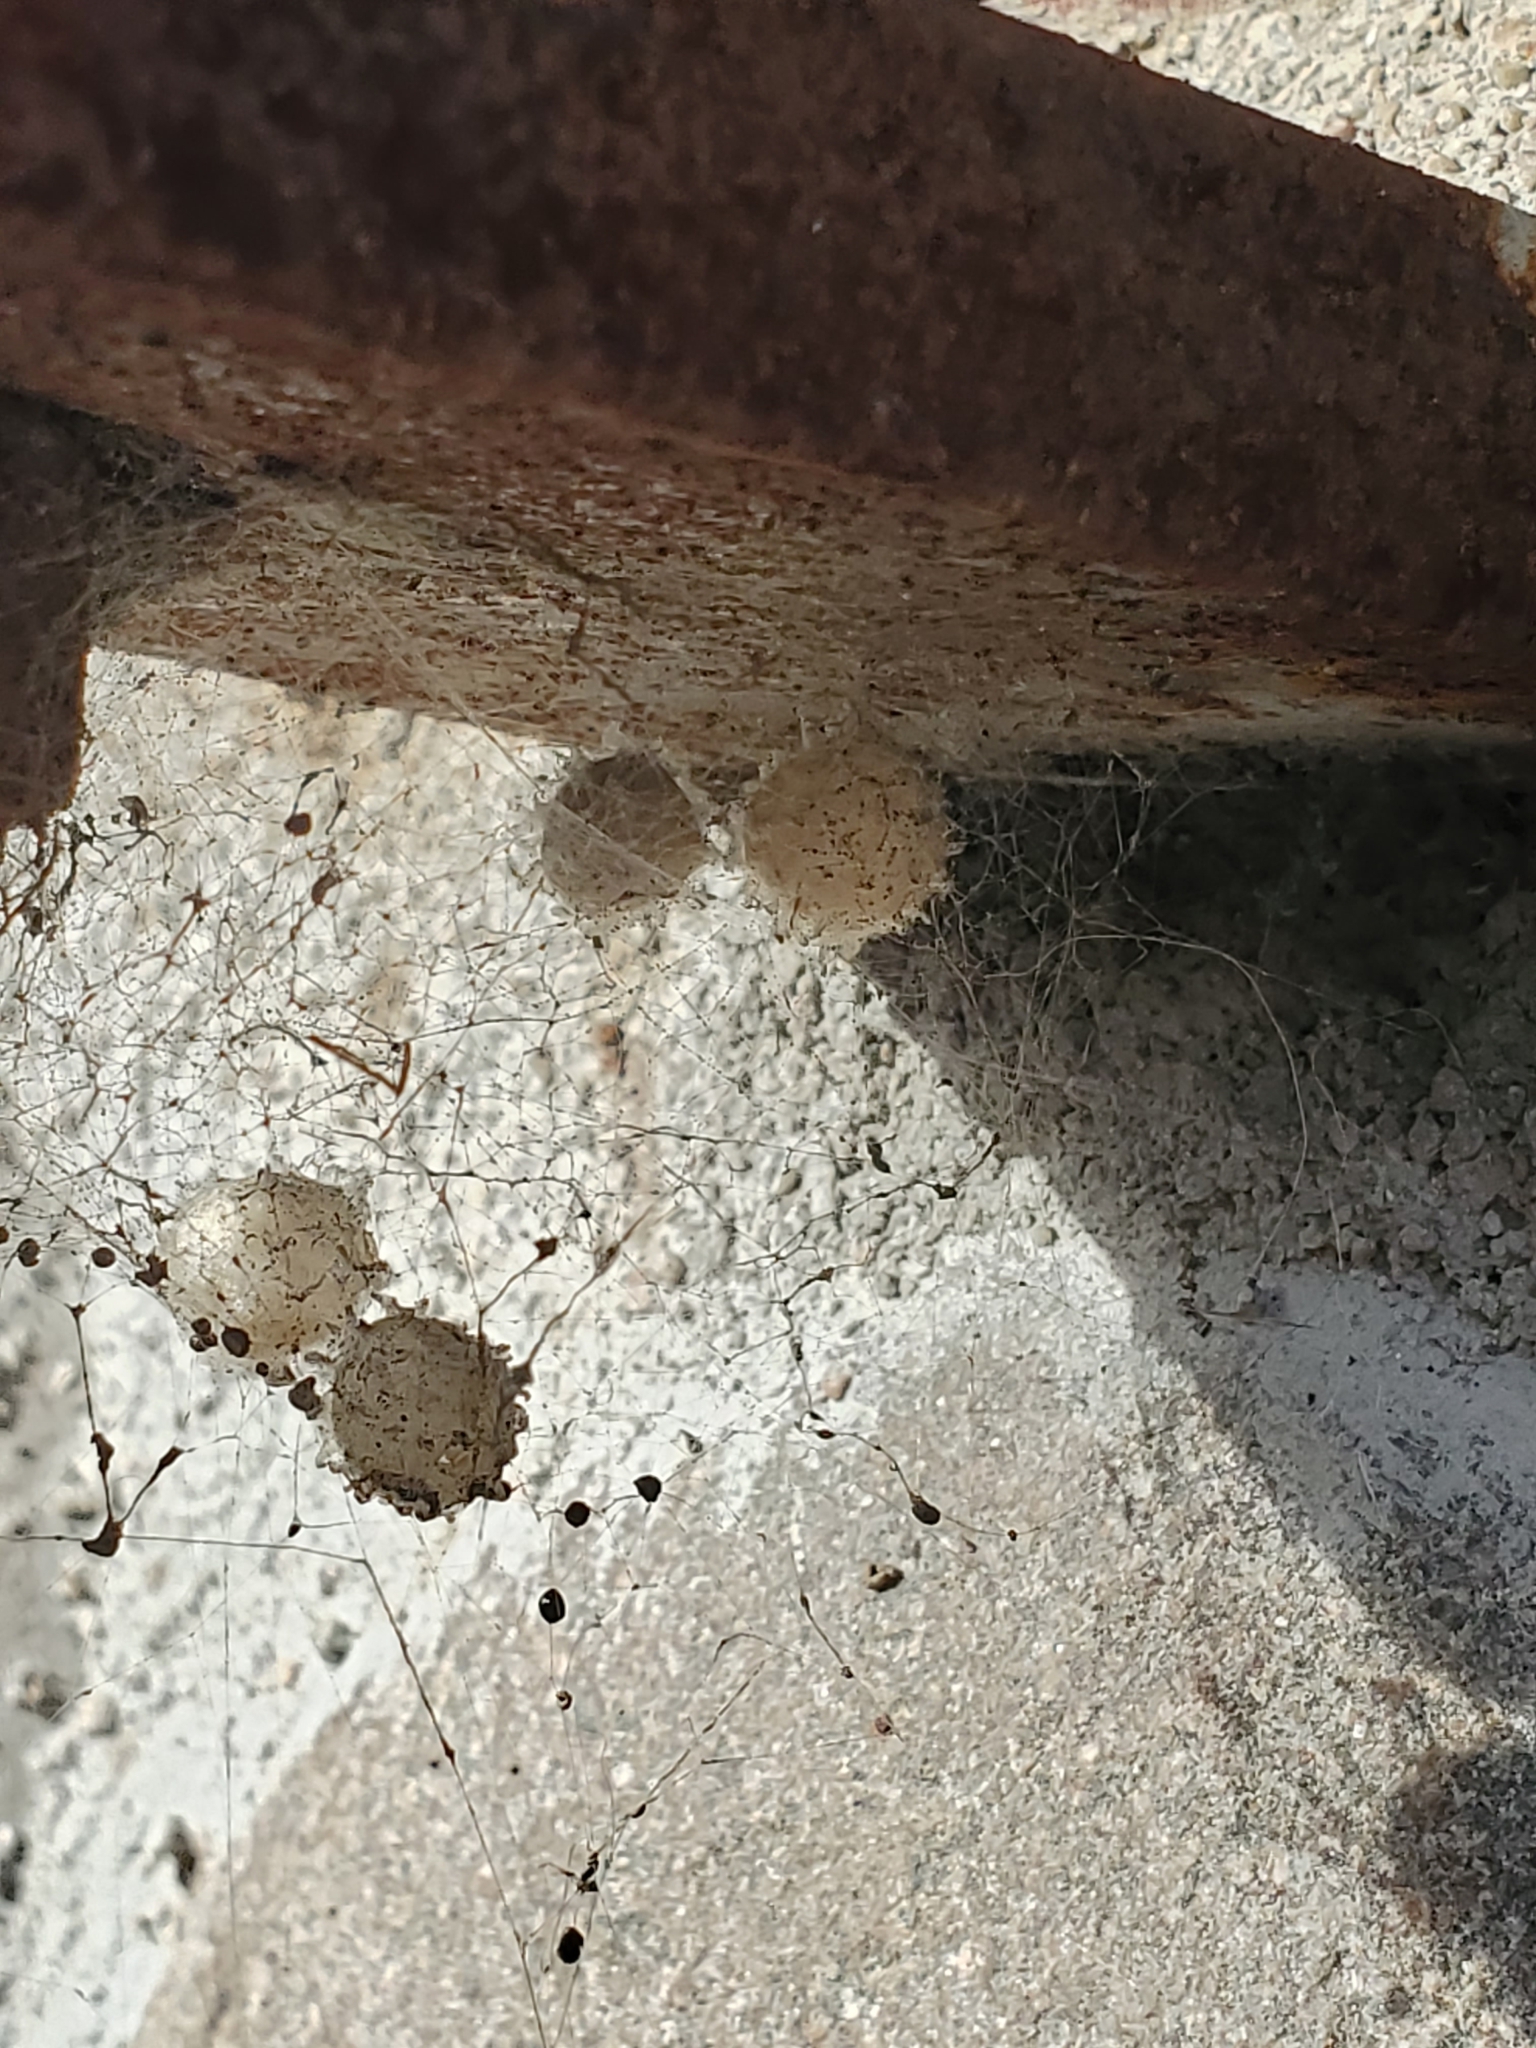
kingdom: Animalia
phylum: Arthropoda
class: Arachnida
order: Araneae
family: Theridiidae
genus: Latrodectus
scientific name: Latrodectus geometricus
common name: Brown widow spider
